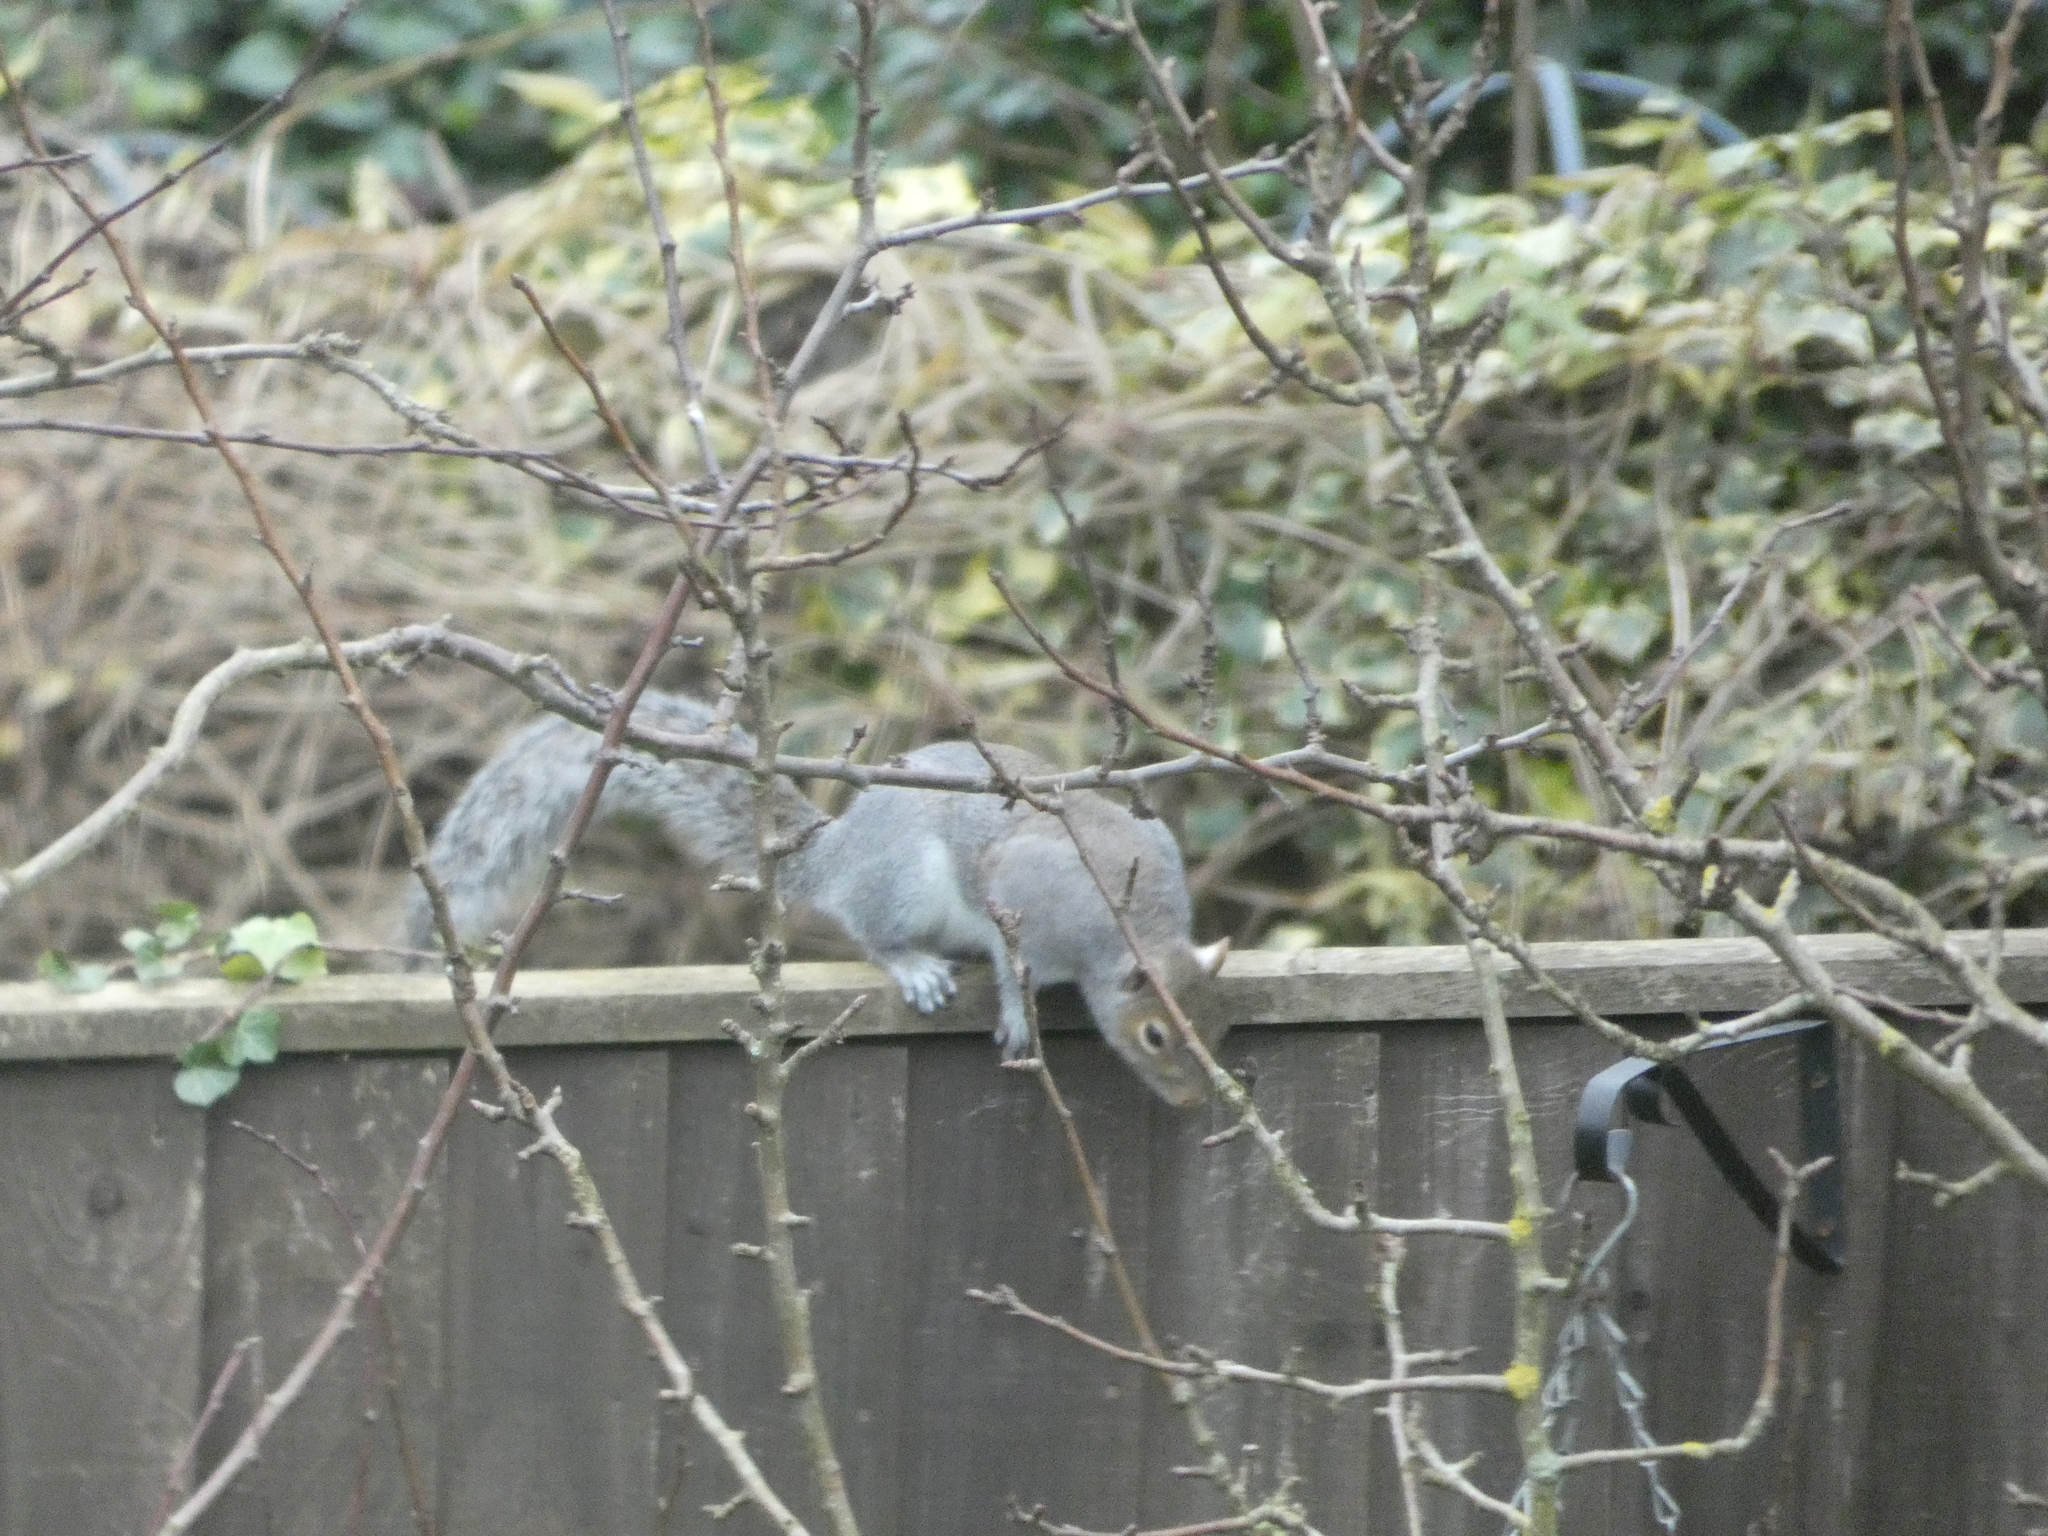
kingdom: Animalia
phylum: Chordata
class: Mammalia
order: Rodentia
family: Sciuridae
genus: Sciurus
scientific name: Sciurus carolinensis
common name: Eastern gray squirrel
